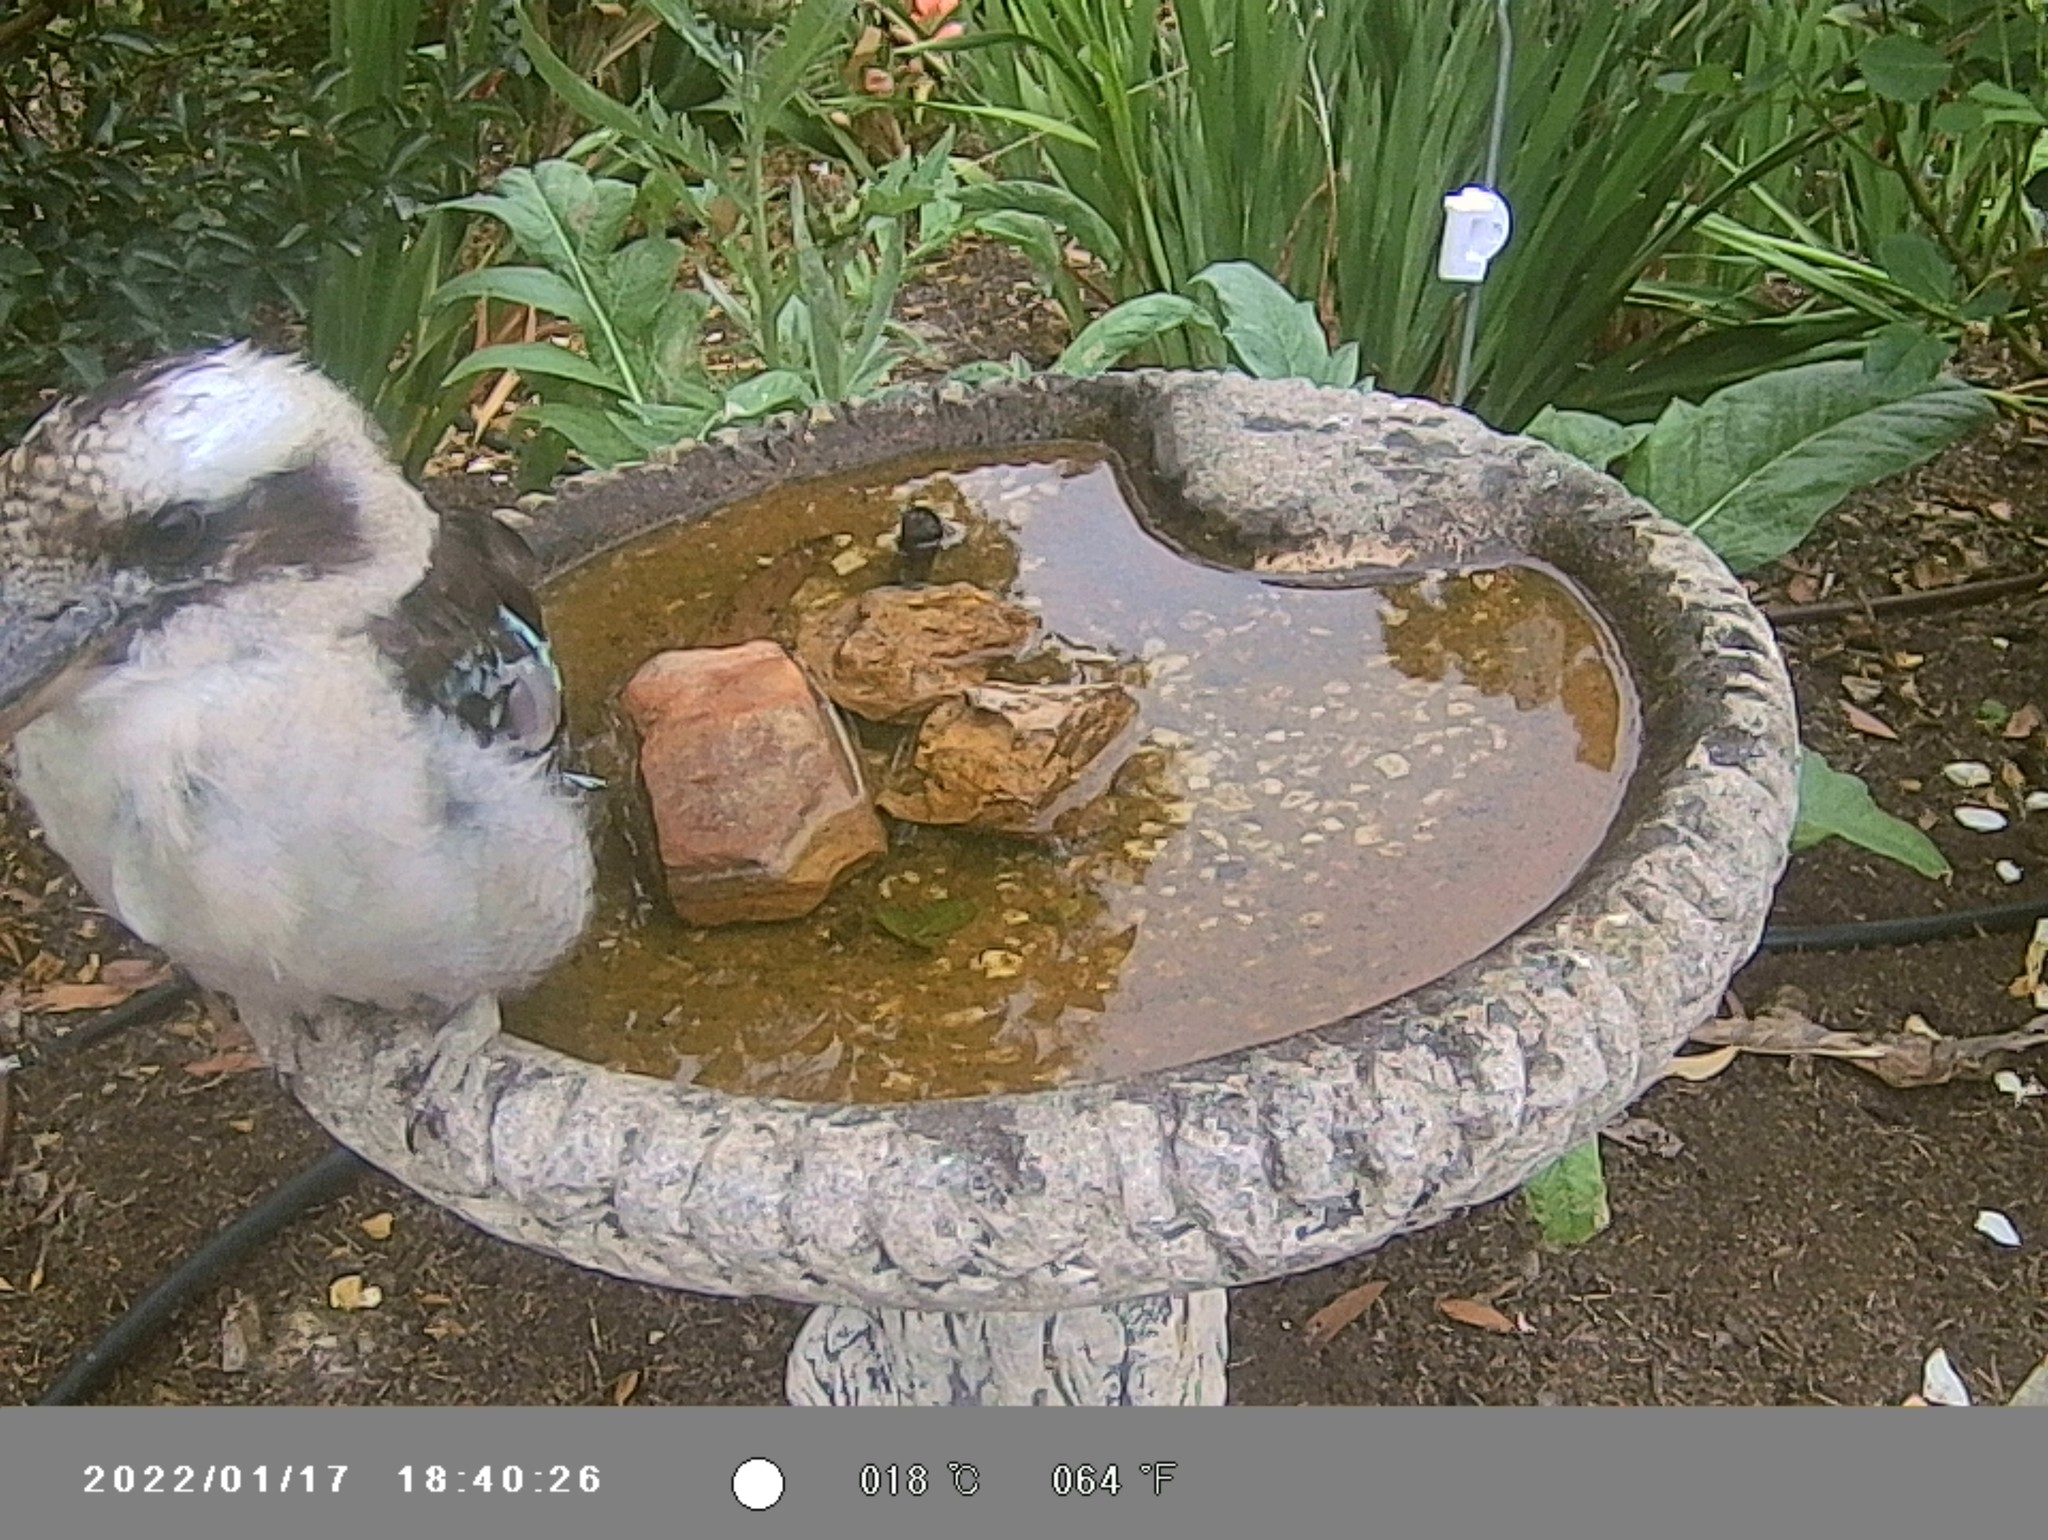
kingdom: Animalia
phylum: Chordata
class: Aves
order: Coraciiformes
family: Alcedinidae
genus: Dacelo
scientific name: Dacelo novaeguineae
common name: Laughing kookaburra
